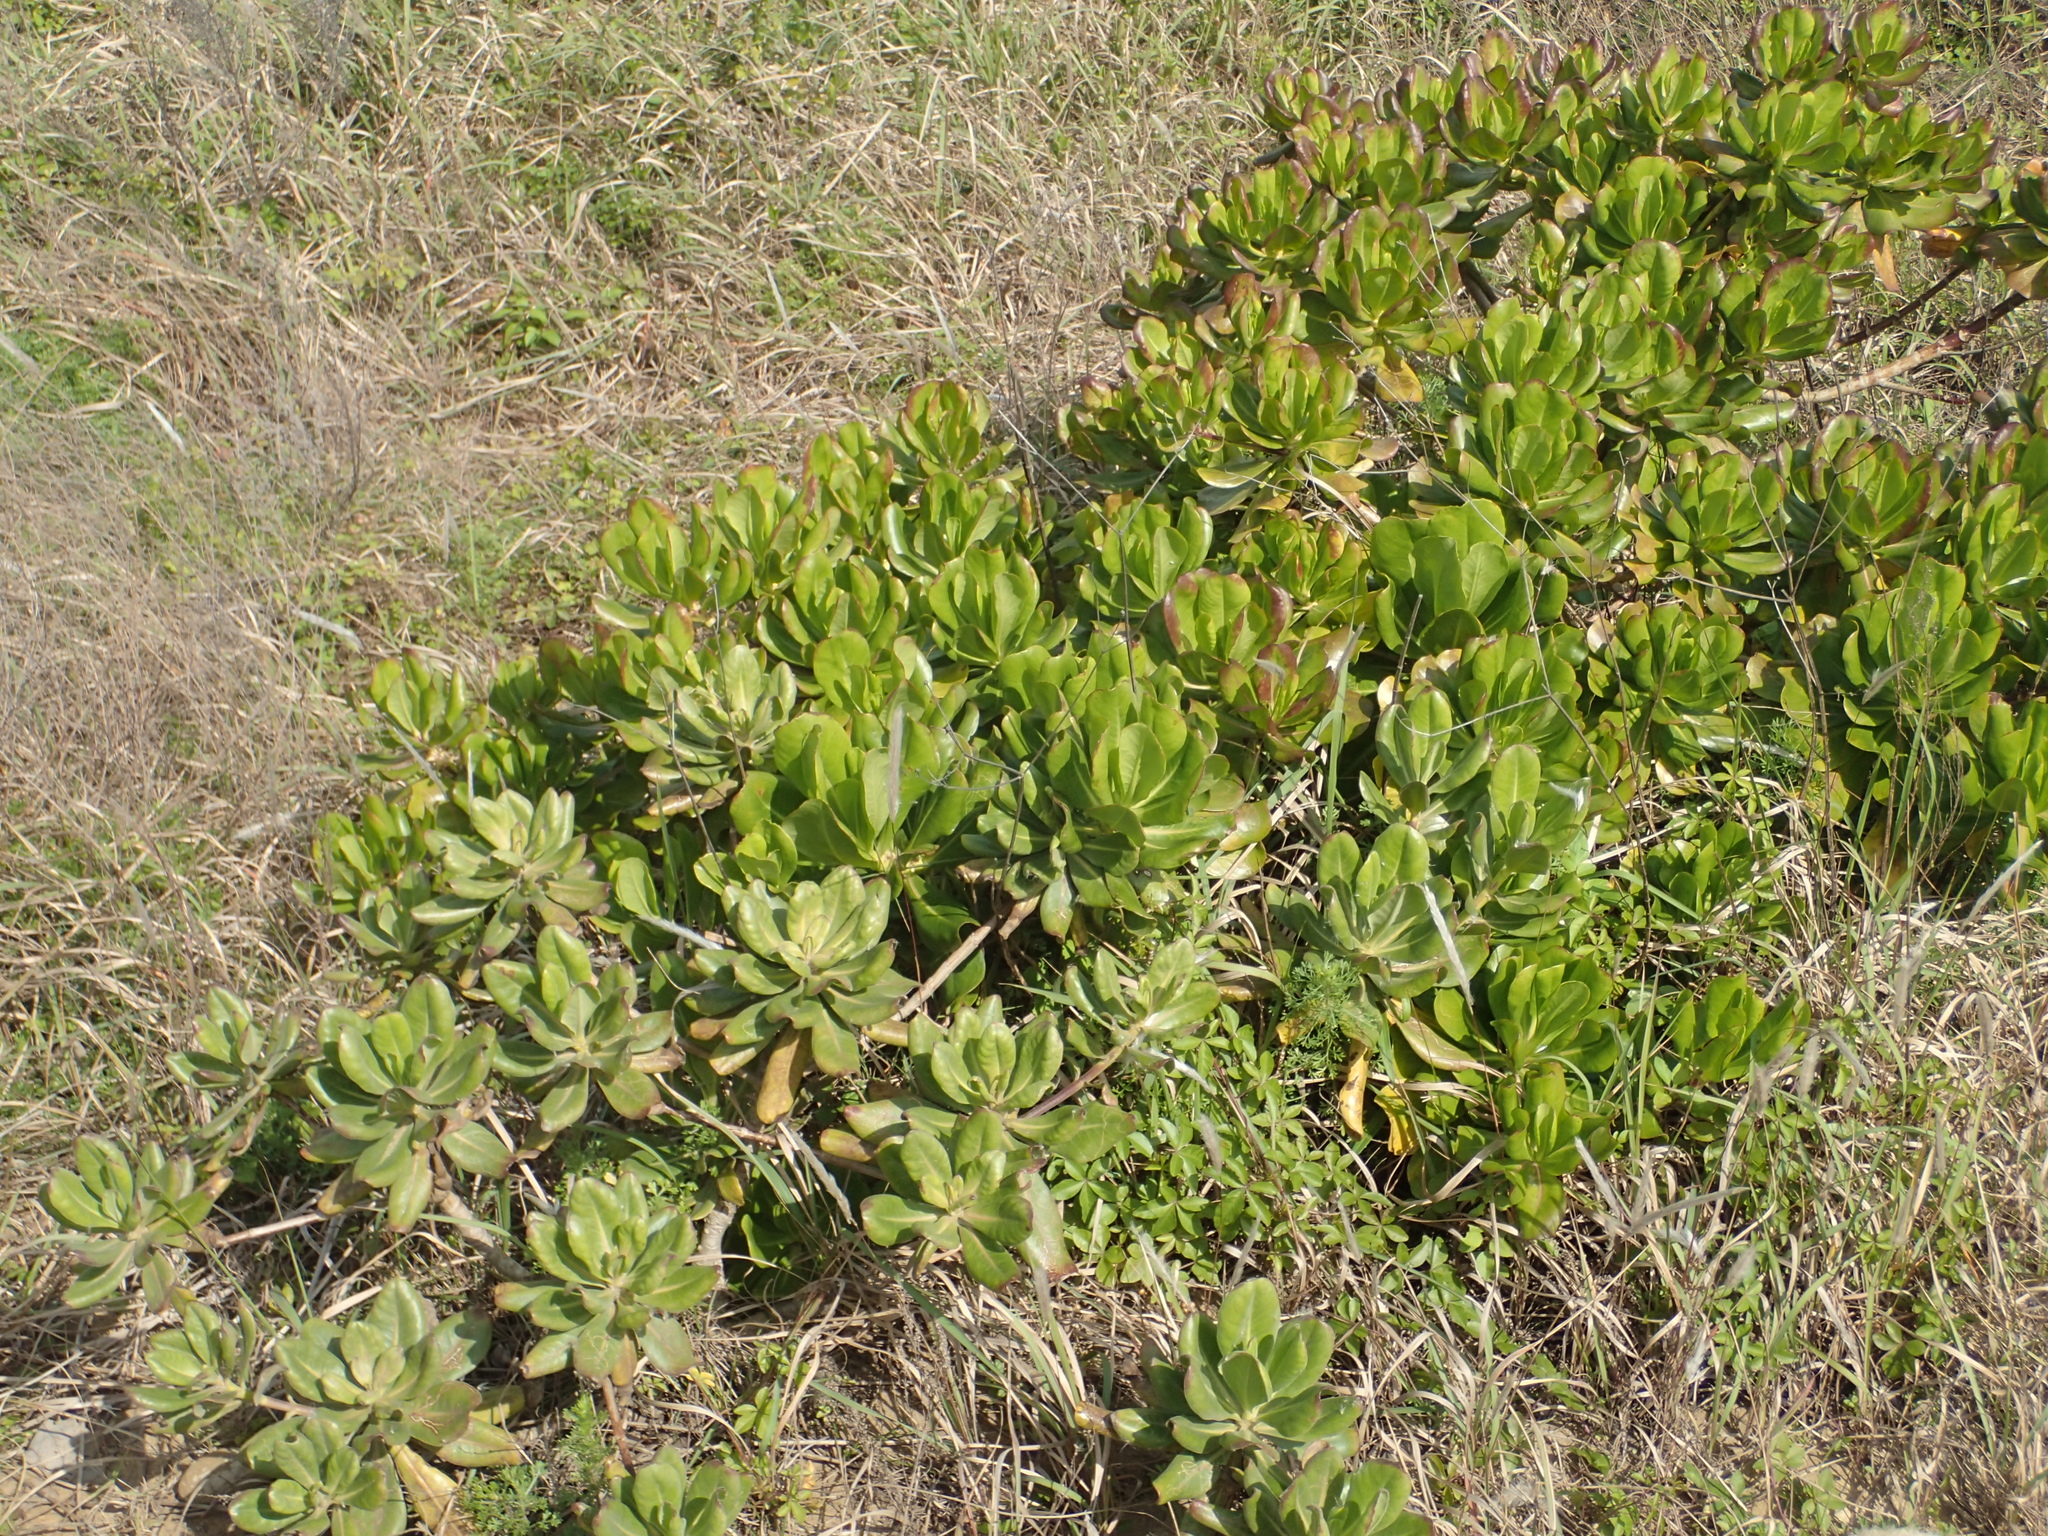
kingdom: Plantae
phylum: Tracheophyta
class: Magnoliopsida
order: Asterales
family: Goodeniaceae
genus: Scaevola
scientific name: Scaevola taccada
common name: Sea lettucetree
